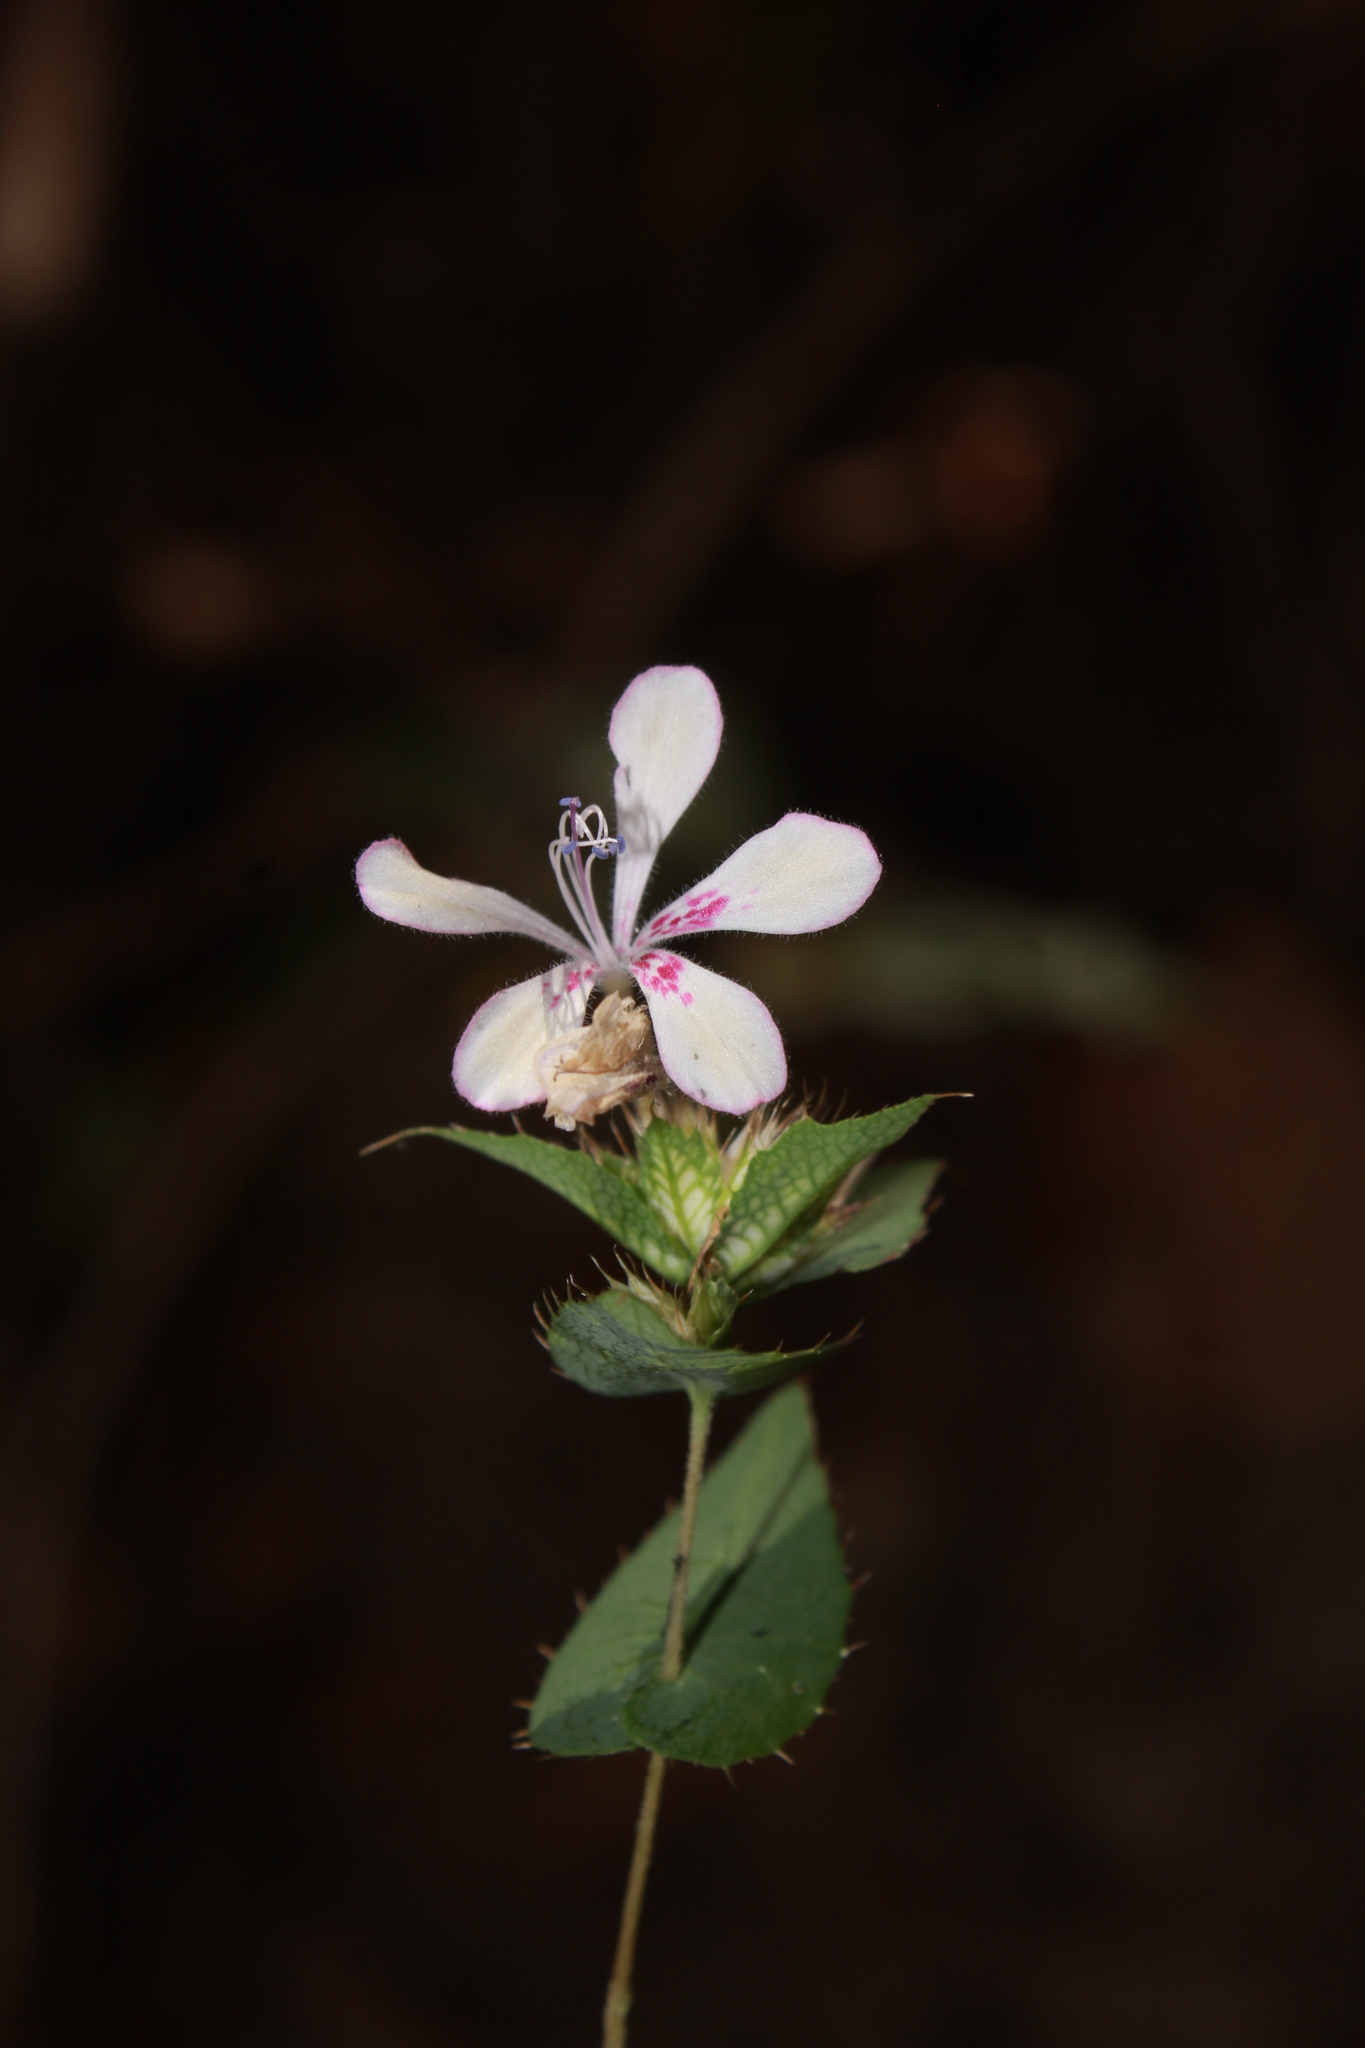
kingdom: Plantae
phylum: Tracheophyta
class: Magnoliopsida
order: Ericales
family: Polemoniaceae
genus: Loeselia
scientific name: Loeselia amplectens
